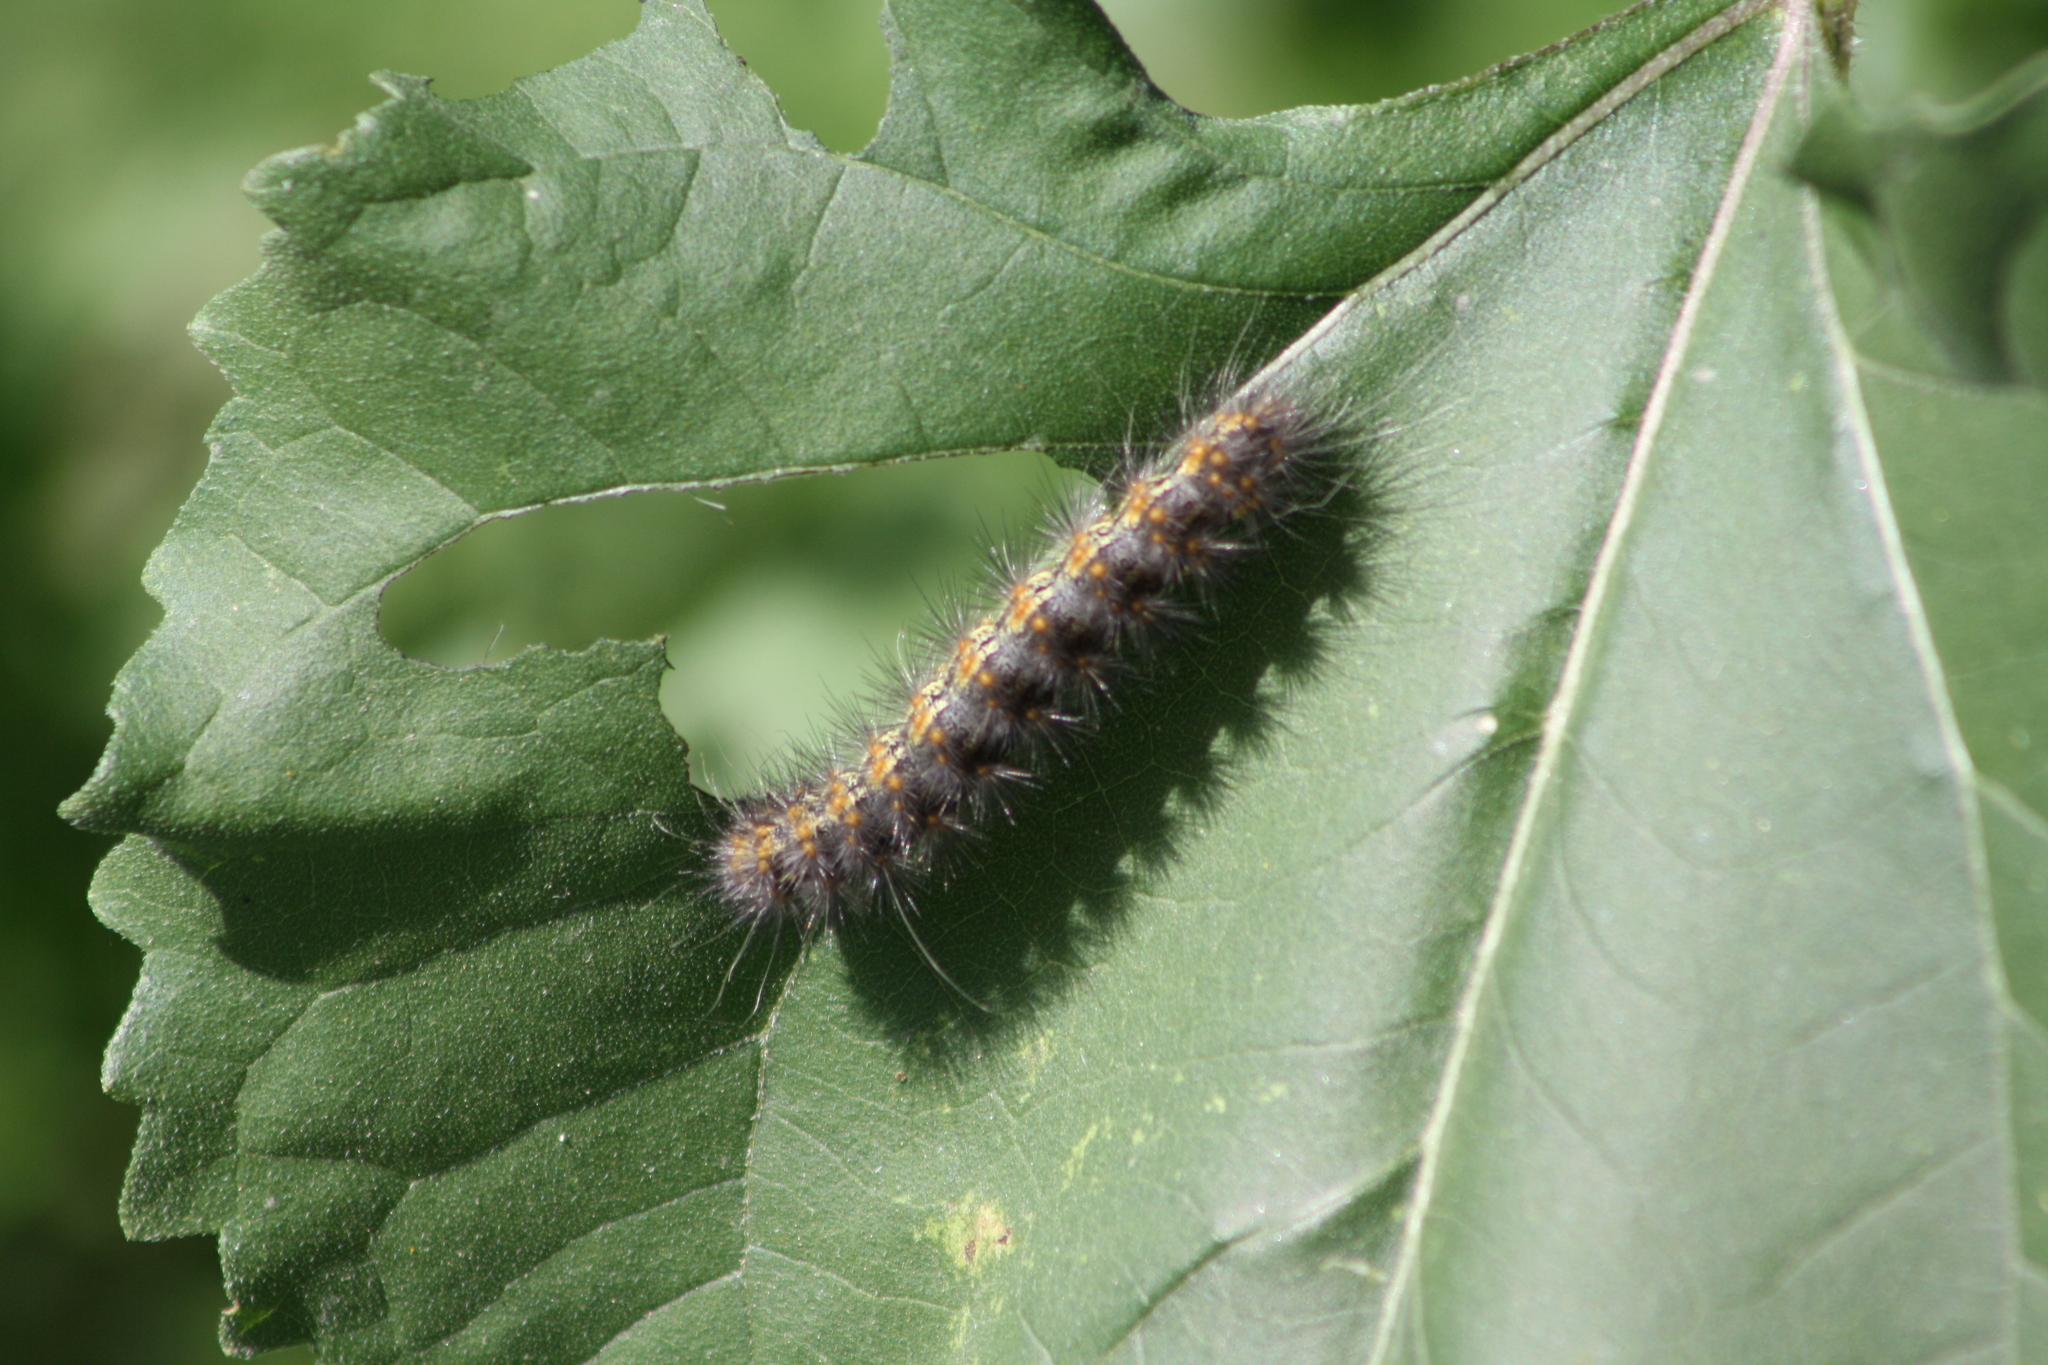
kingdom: Animalia
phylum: Arthropoda
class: Insecta
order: Lepidoptera
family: Erebidae
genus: Estigmene
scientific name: Estigmene acrea
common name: Salt marsh moth
